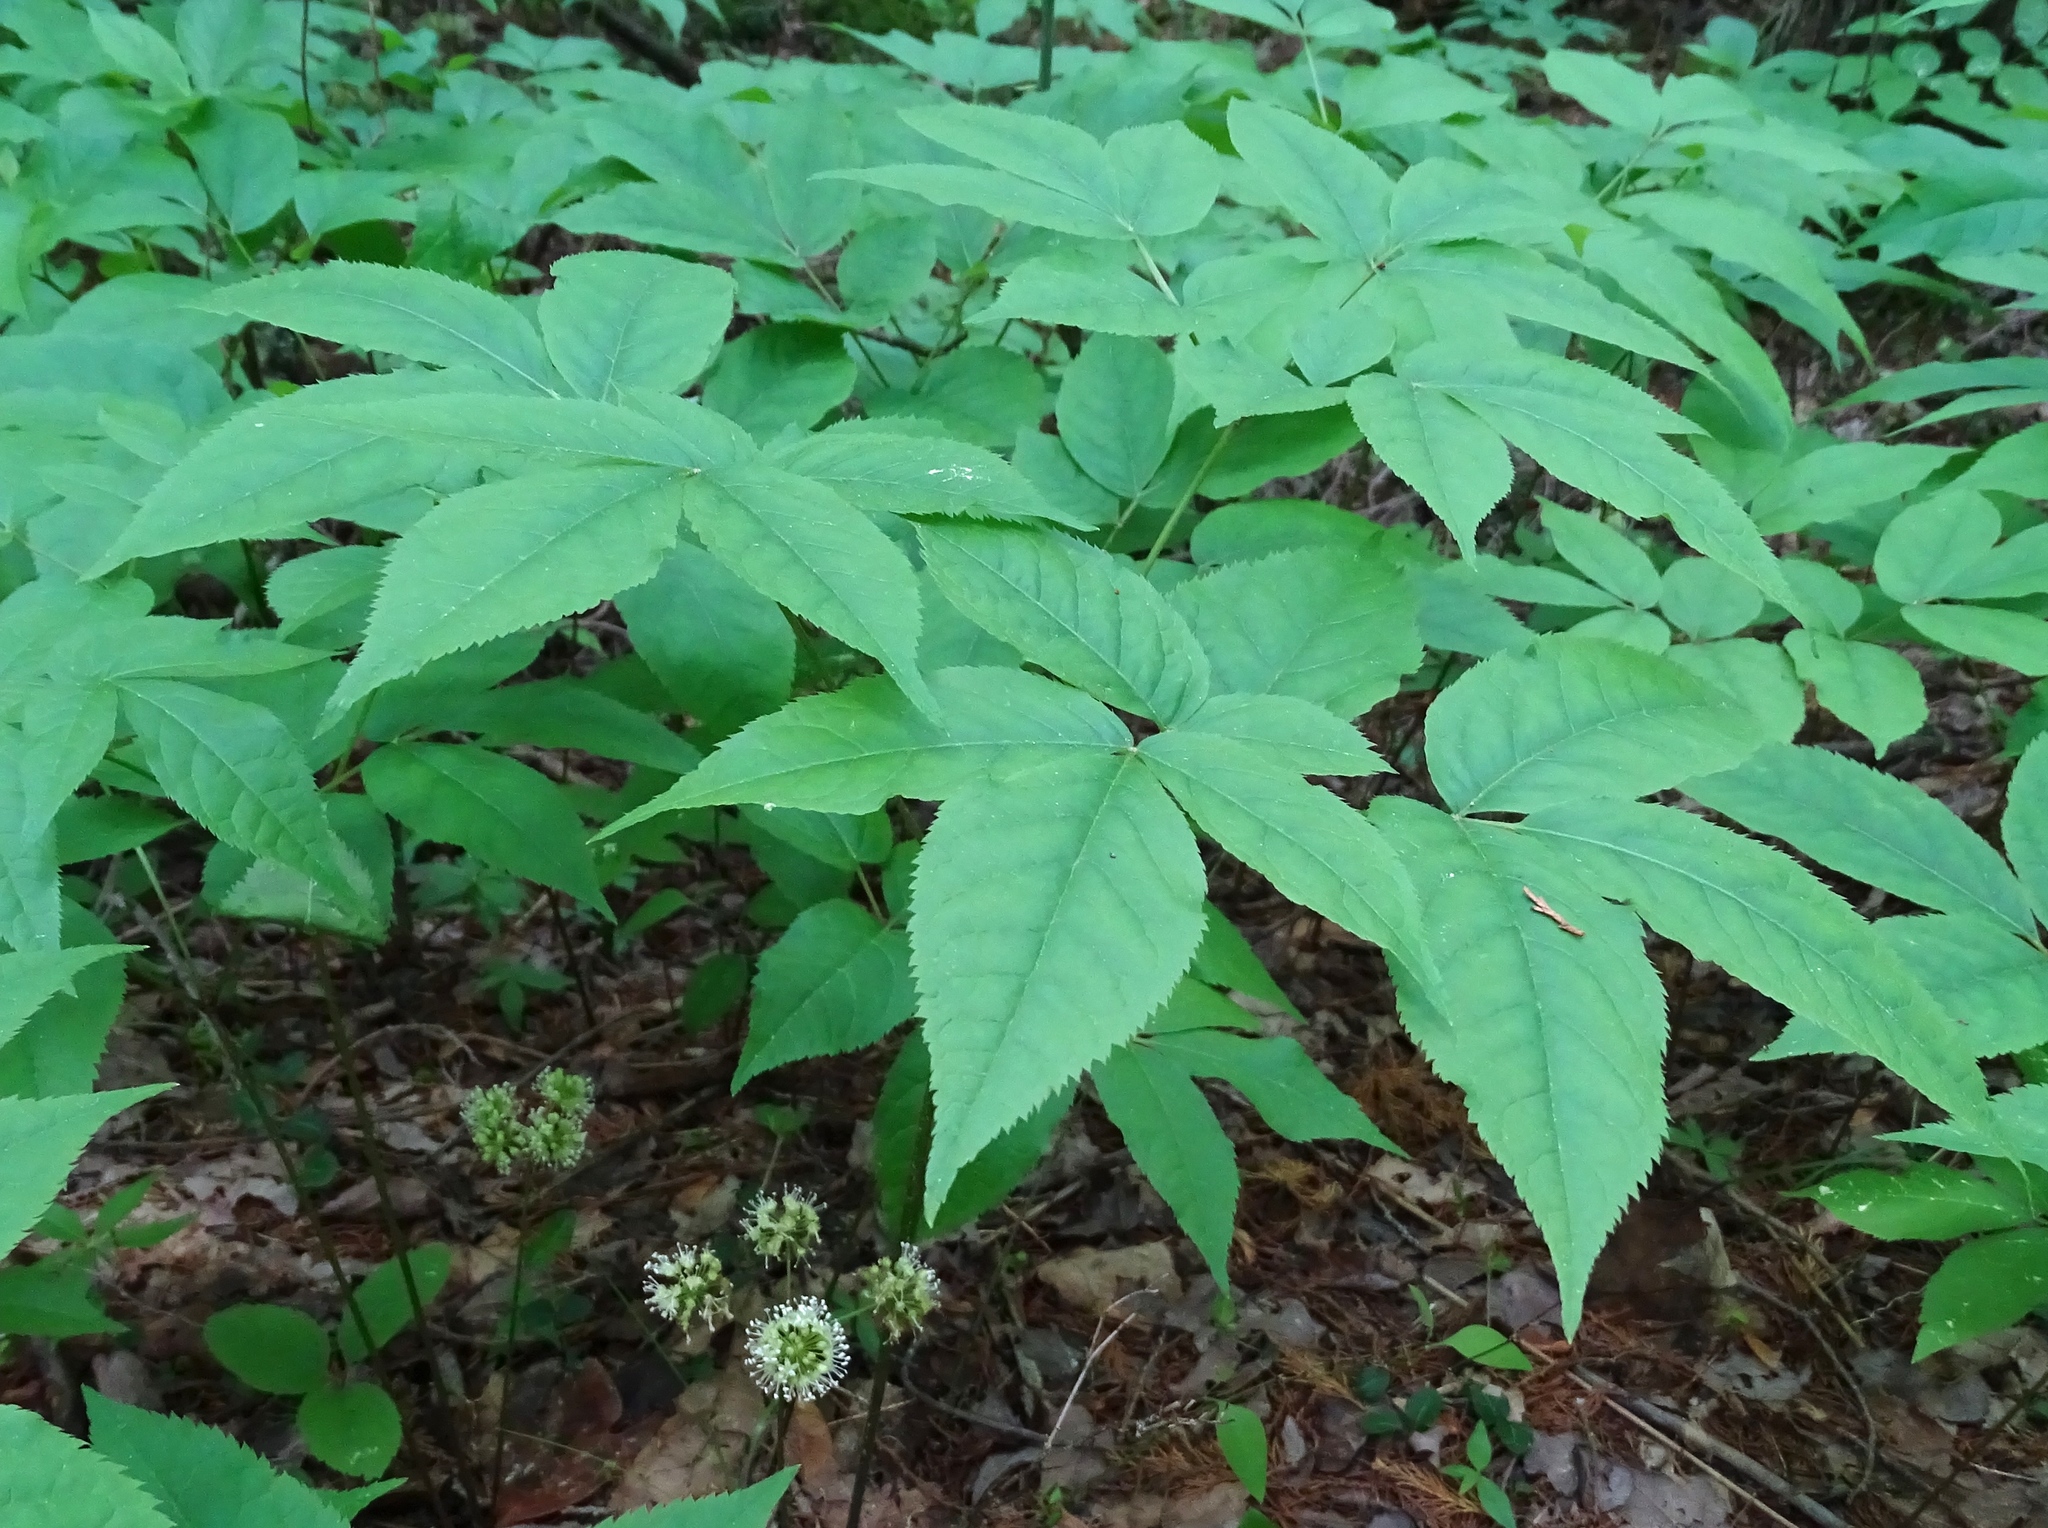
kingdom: Plantae
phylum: Tracheophyta
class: Magnoliopsida
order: Apiales
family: Araliaceae
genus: Aralia
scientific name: Aralia nudicaulis
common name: Wild sarsaparilla
